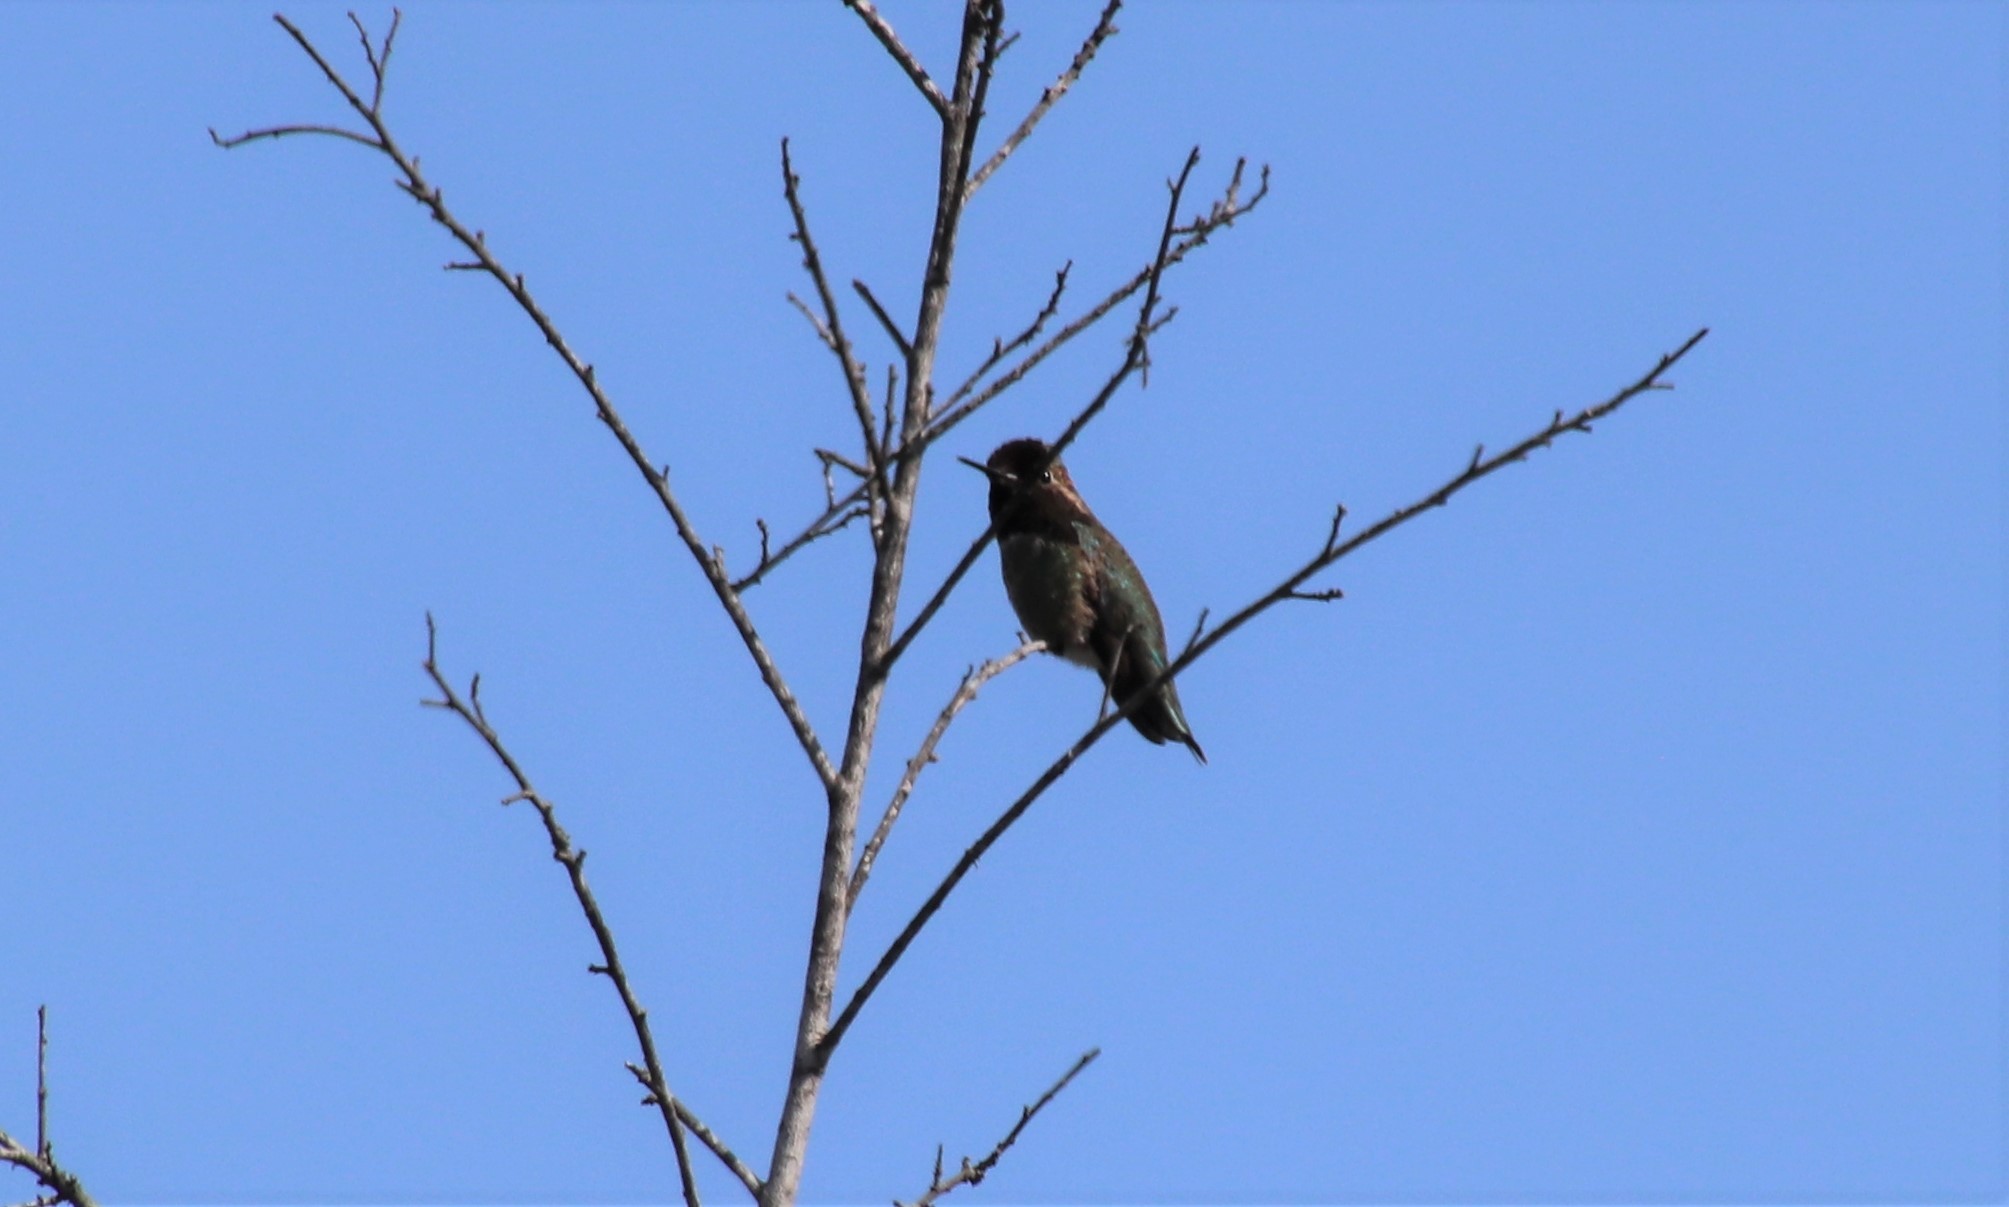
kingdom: Animalia
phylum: Chordata
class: Aves
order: Apodiformes
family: Trochilidae
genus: Calypte
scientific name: Calypte anna
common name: Anna's hummingbird
